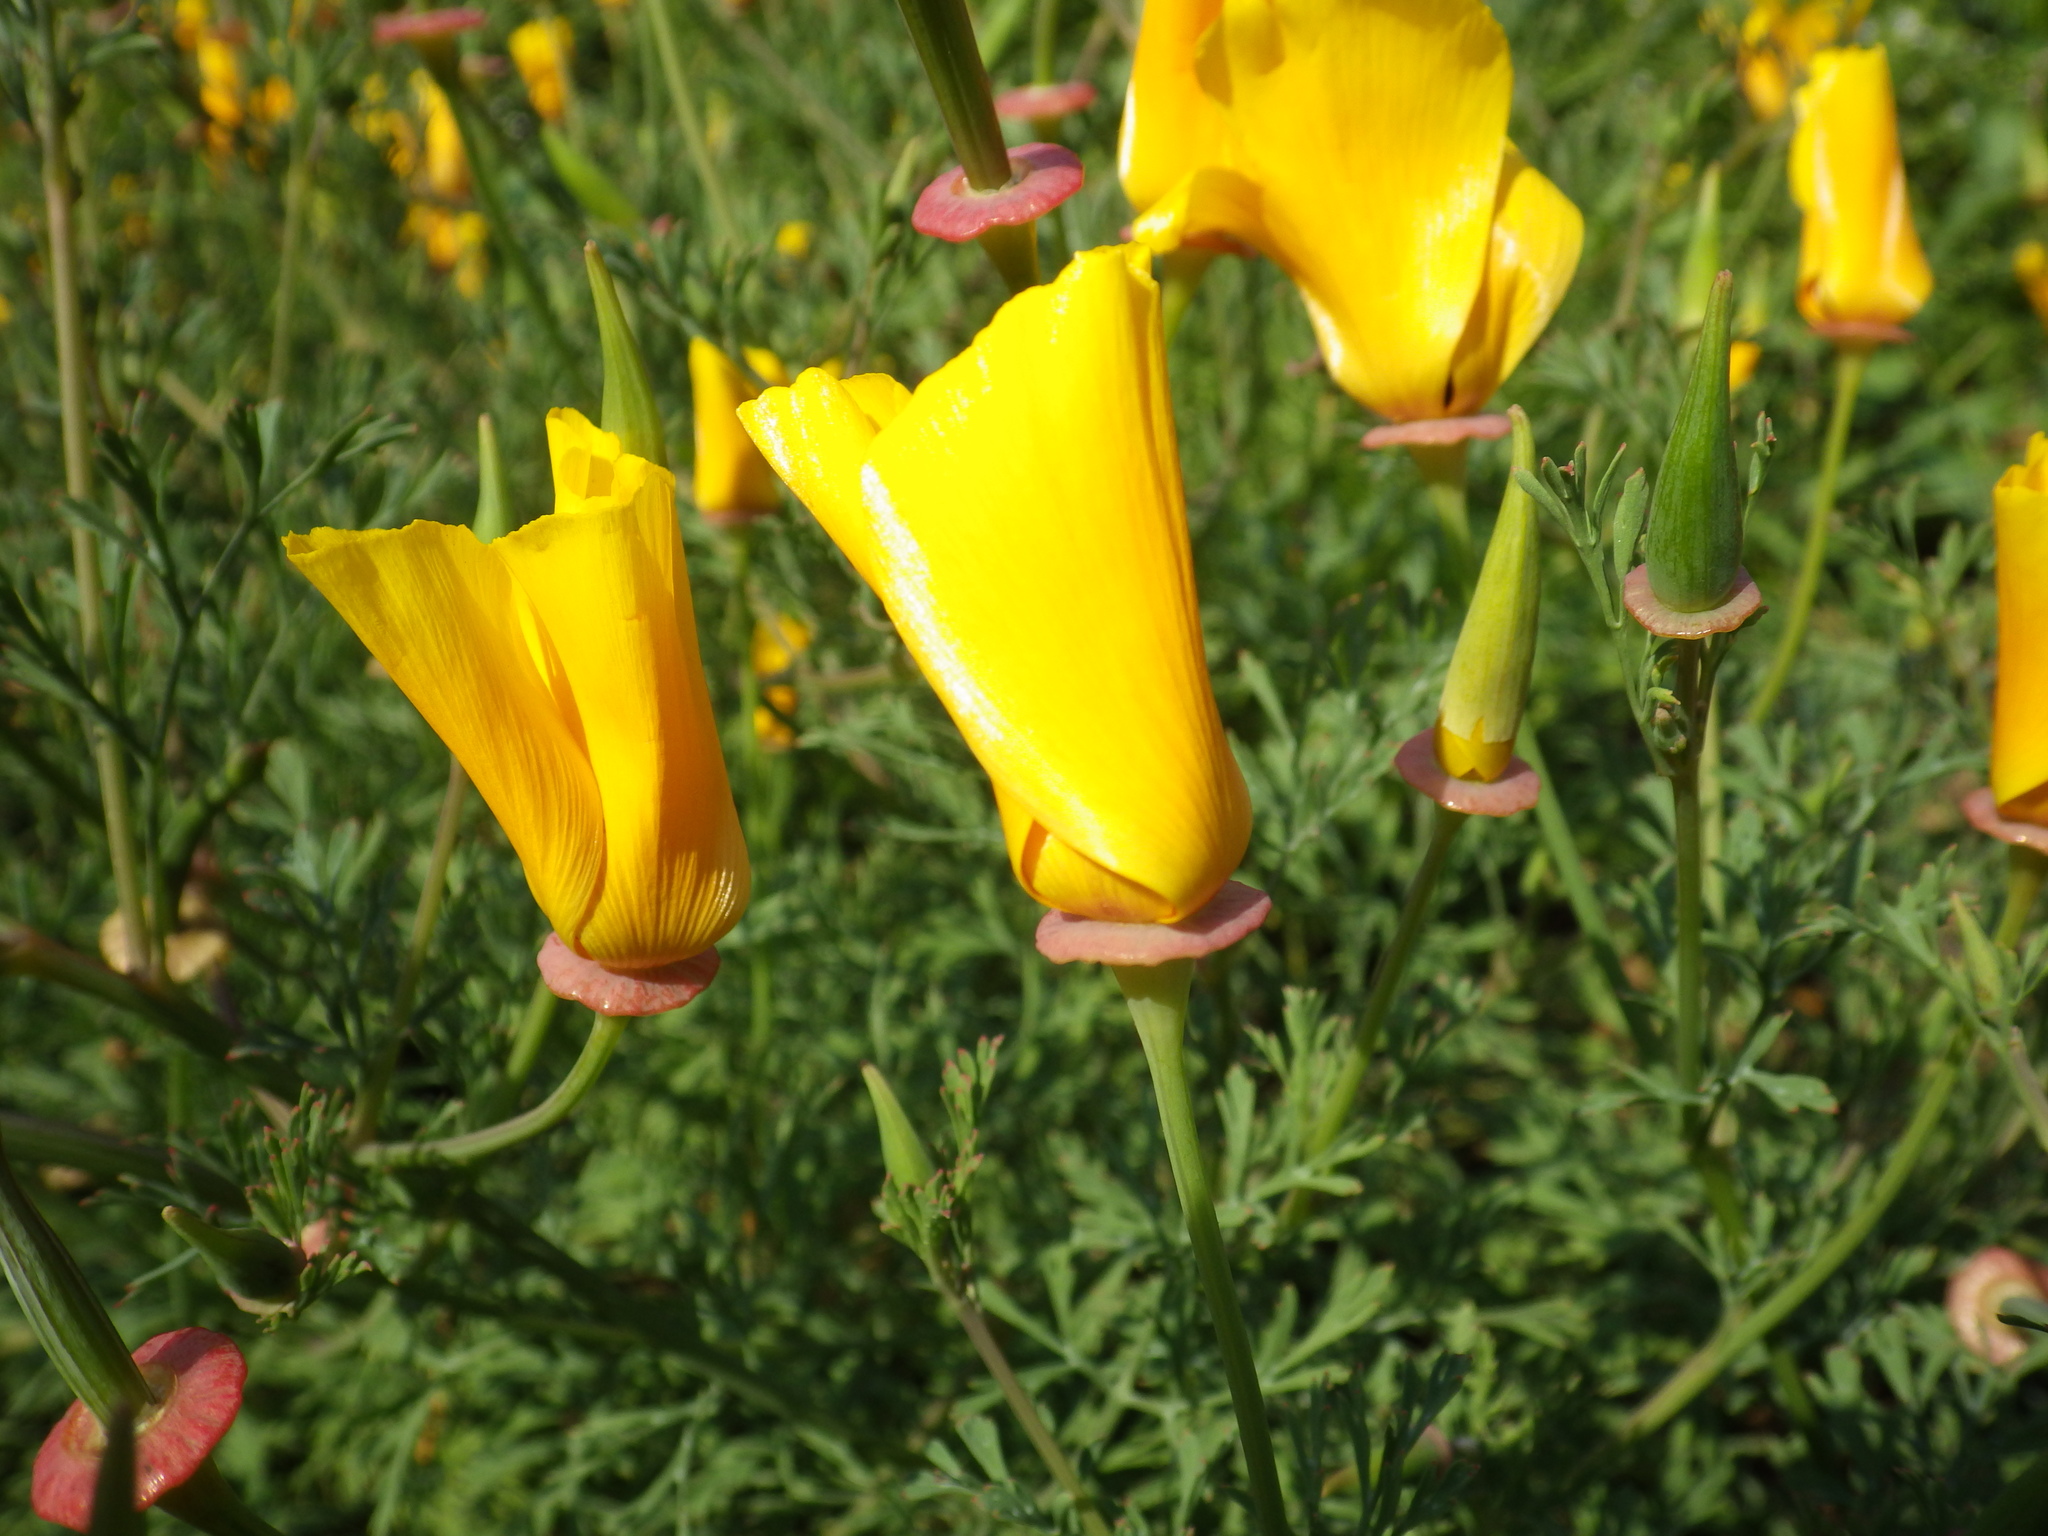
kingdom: Plantae
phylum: Tracheophyta
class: Magnoliopsida
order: Ranunculales
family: Papaveraceae
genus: Eschscholzia
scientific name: Eschscholzia californica
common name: California poppy
